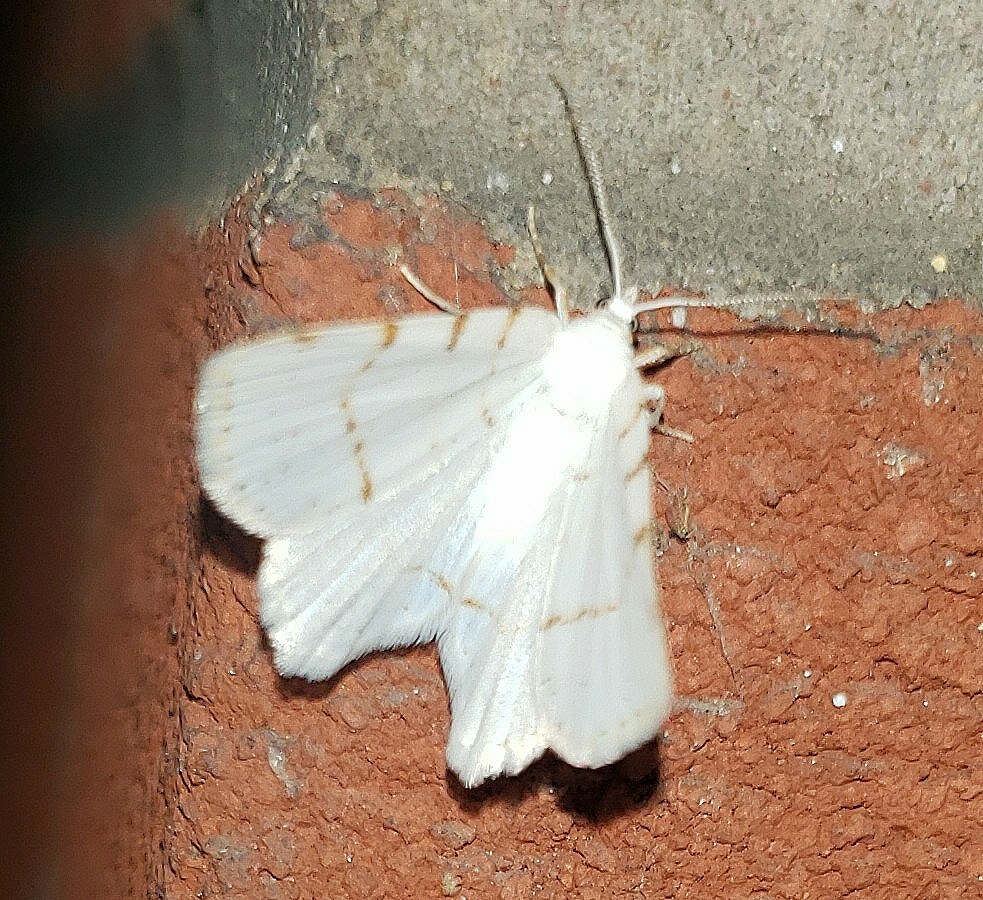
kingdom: Animalia
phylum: Arthropoda
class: Insecta
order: Lepidoptera
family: Geometridae
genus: Macaria
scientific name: Macaria pustularia
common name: Lesser maple spanworm moth
